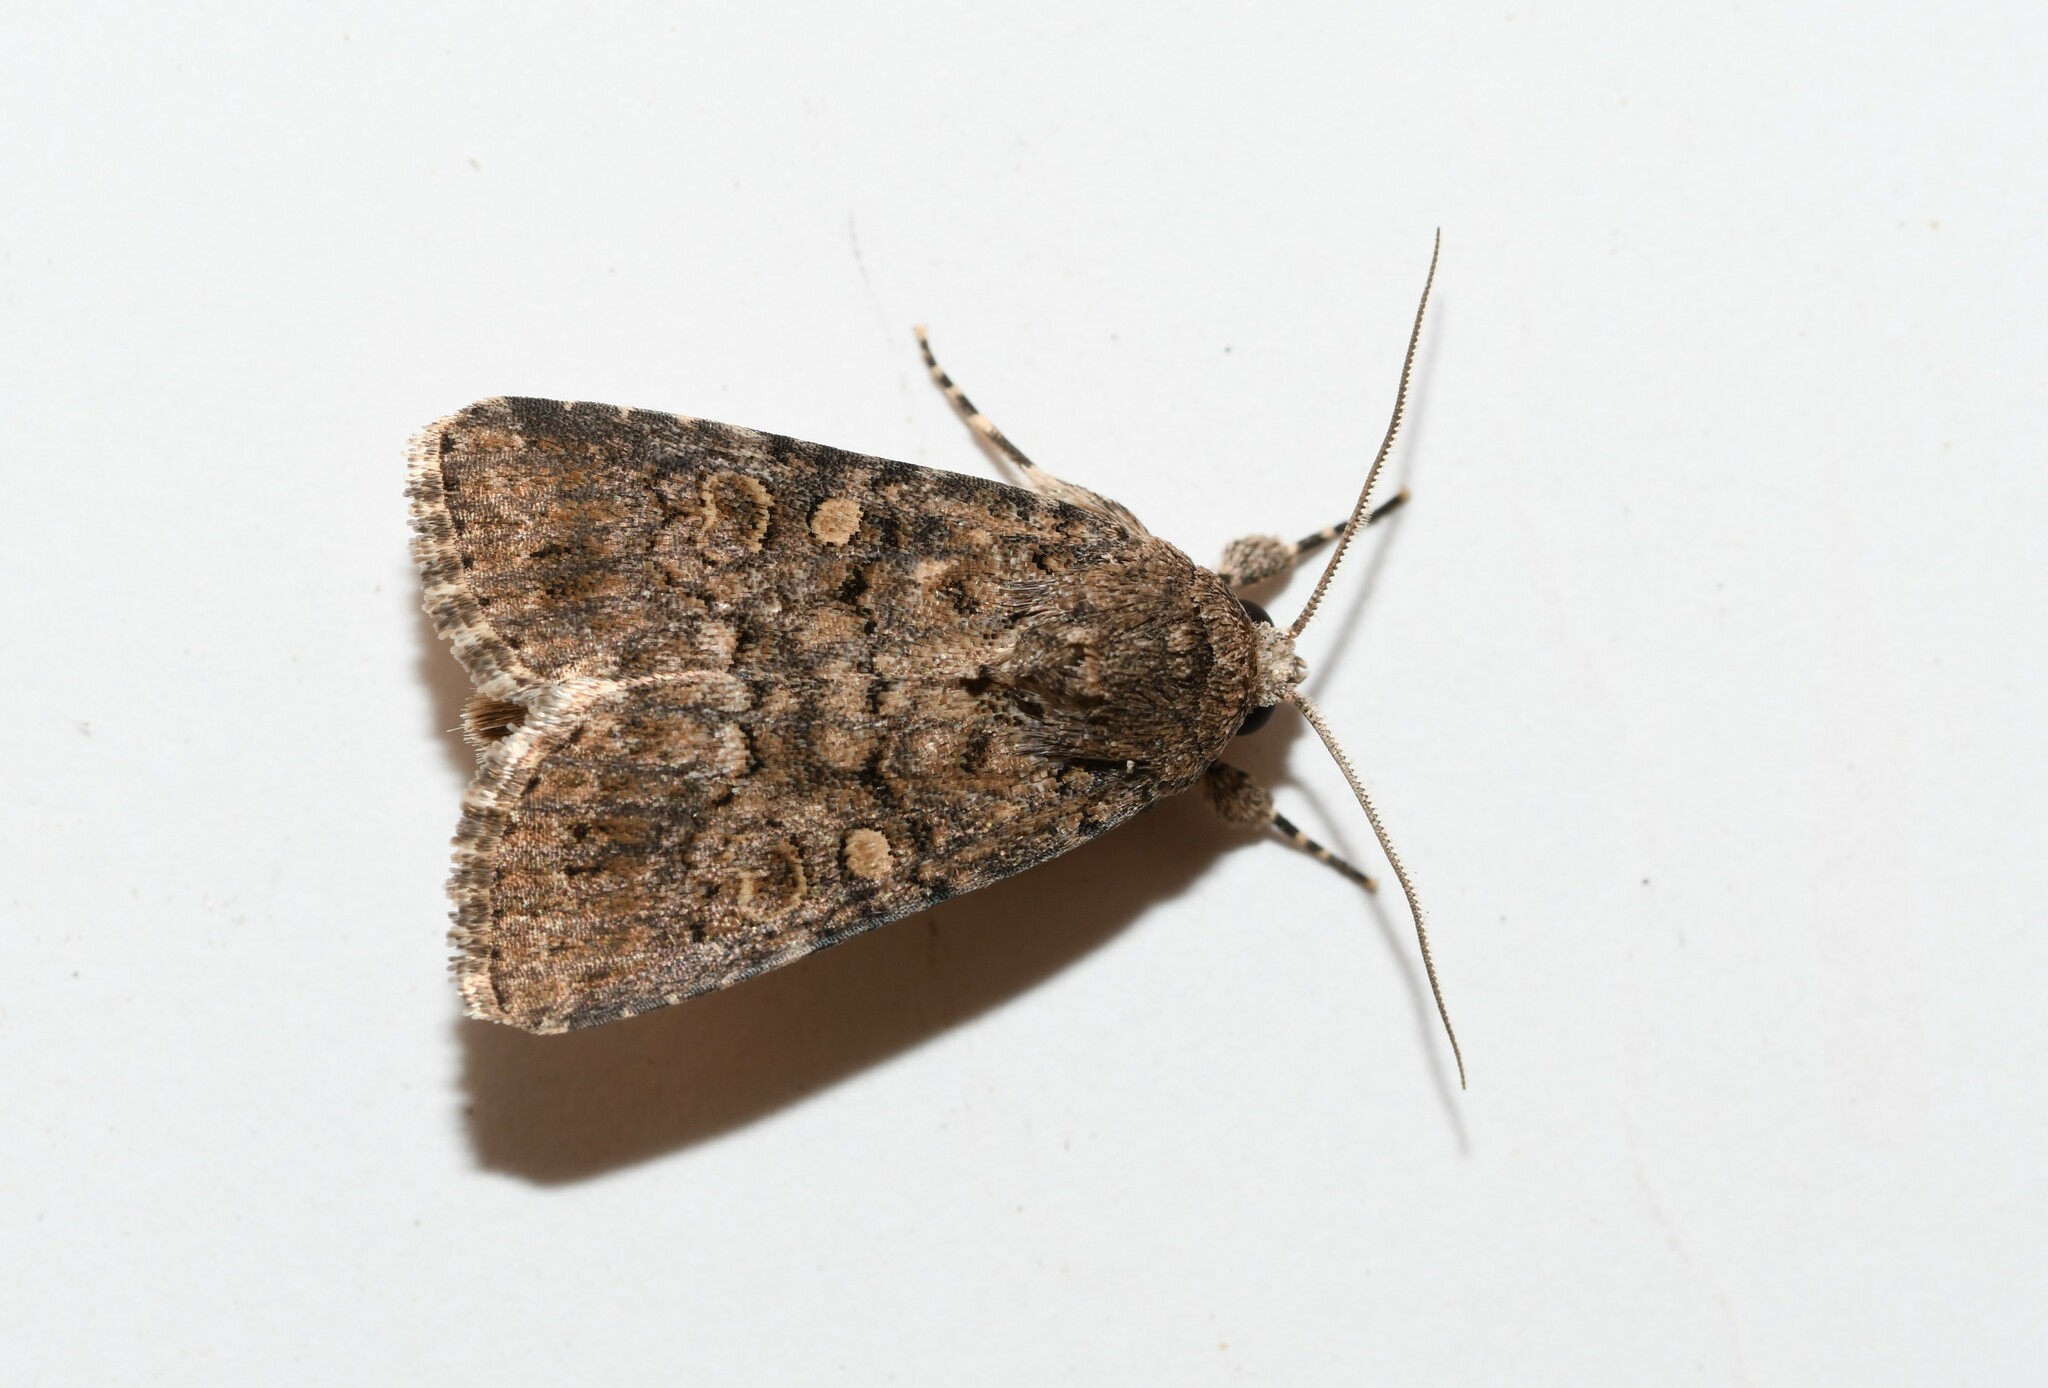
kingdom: Animalia
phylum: Arthropoda
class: Insecta
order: Lepidoptera
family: Noctuidae
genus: Spodoptera
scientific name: Spodoptera cilium
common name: Dark mottled willow
